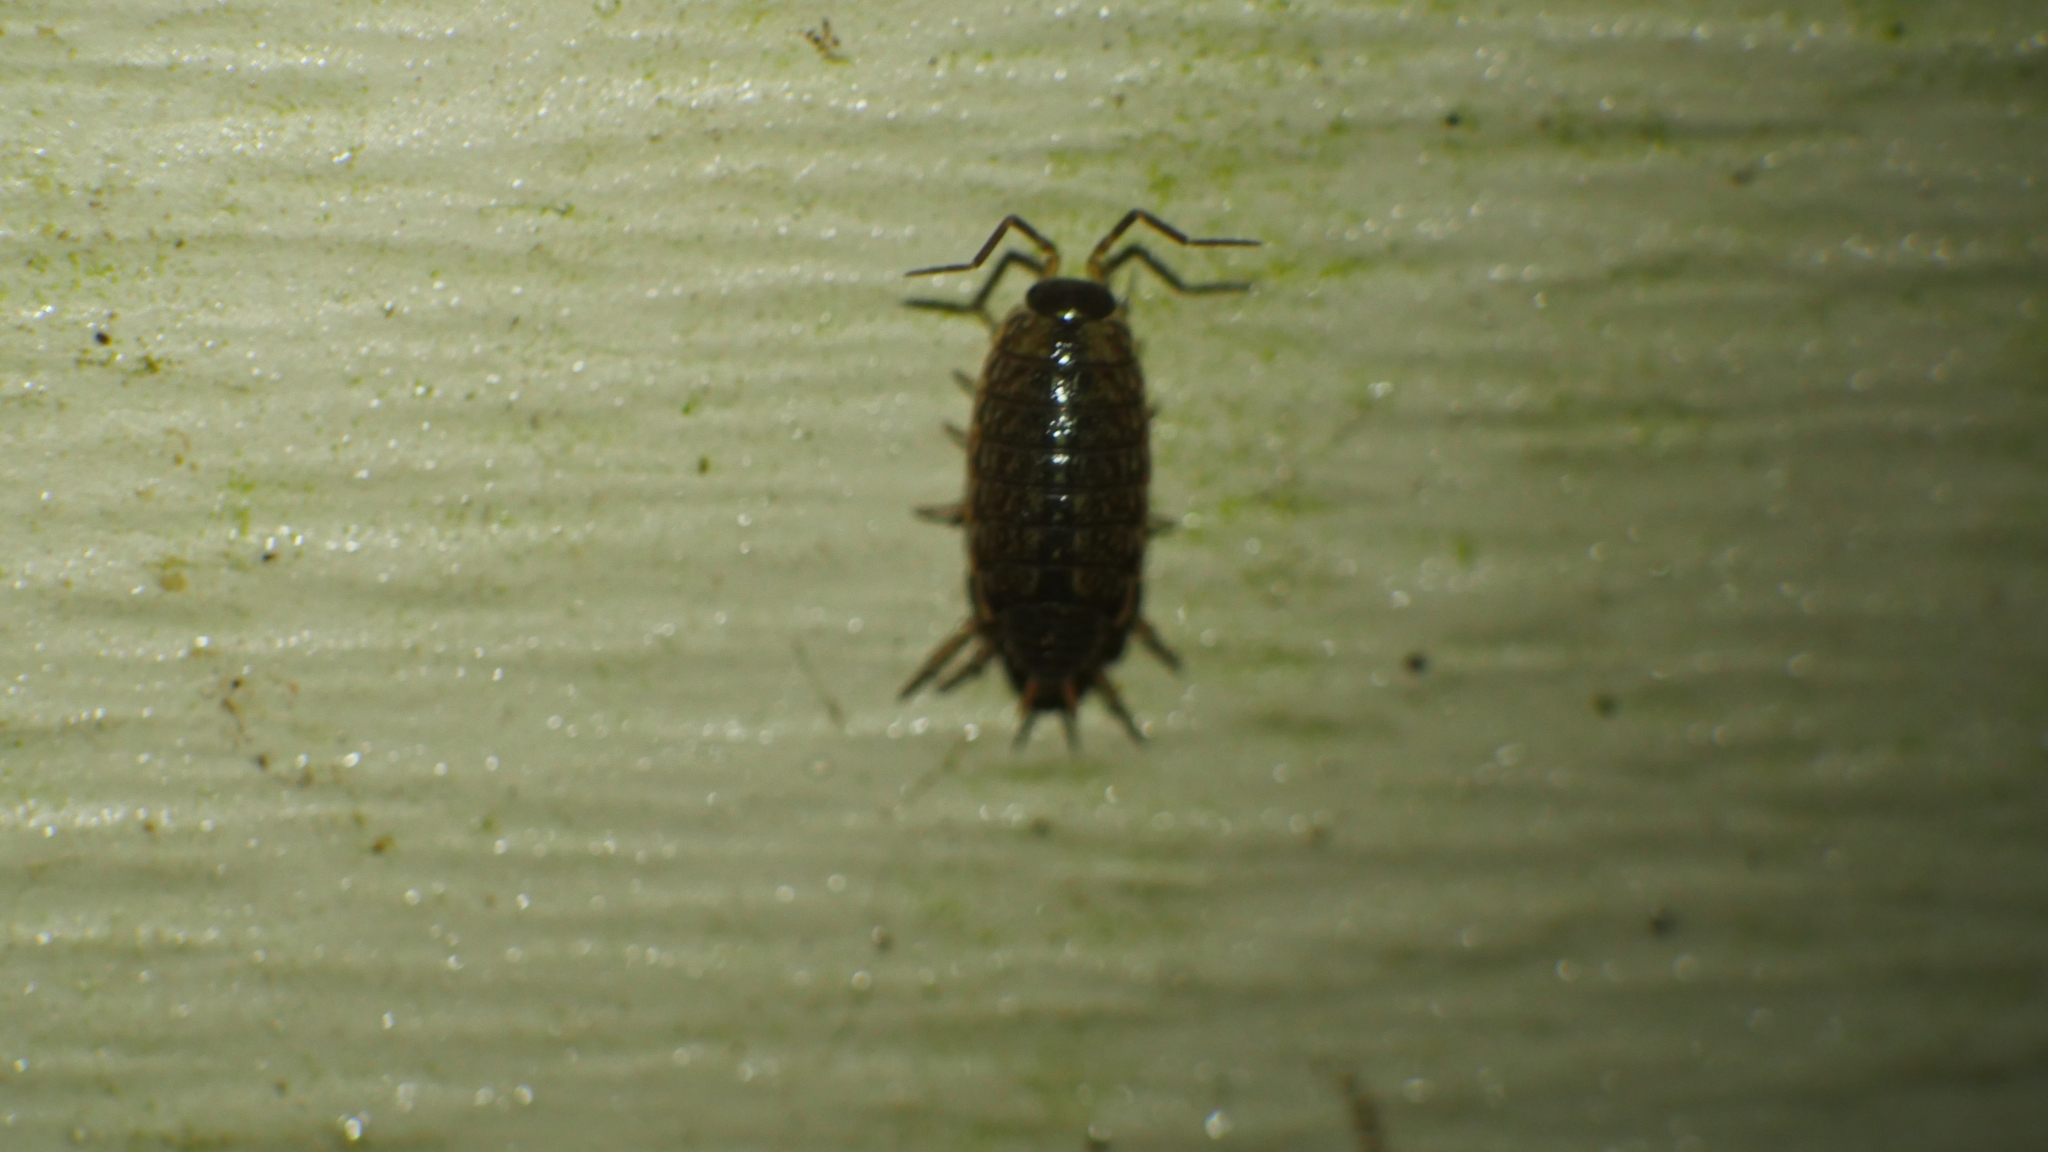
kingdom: Animalia
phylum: Arthropoda
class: Malacostraca
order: Isopoda
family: Philosciidae
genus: Philoscia
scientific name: Philoscia muscorum
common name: Common striped woodlouse
